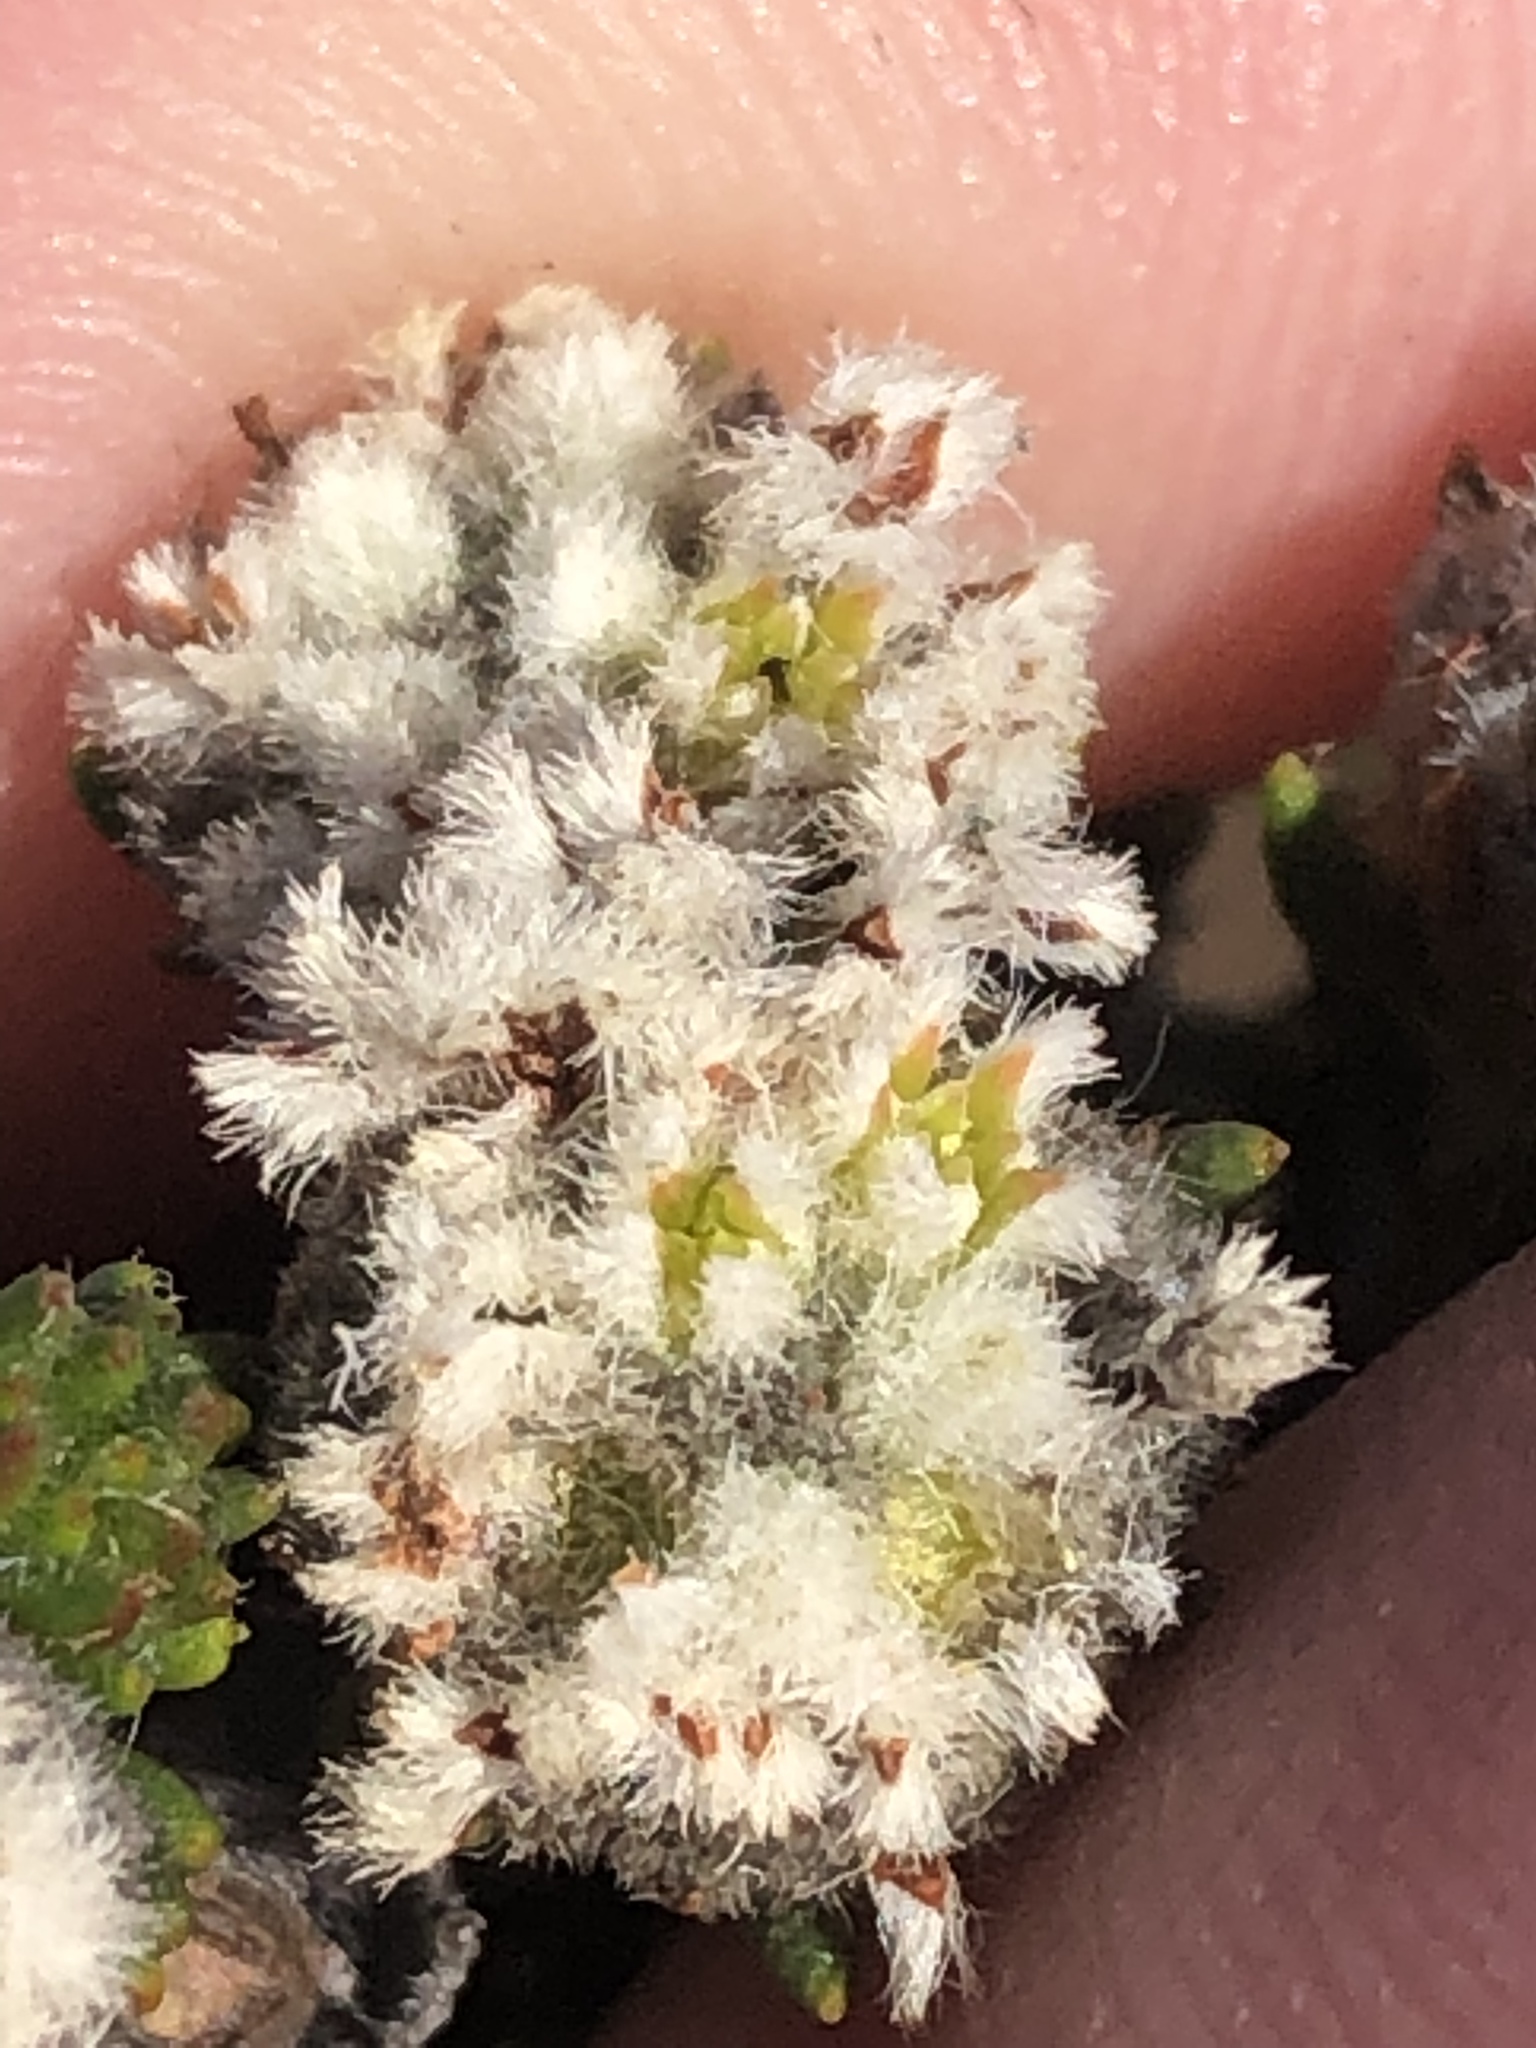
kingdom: Plantae
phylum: Tracheophyta
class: Magnoliopsida
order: Rosales
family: Rhamnaceae
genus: Phylica
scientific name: Phylica propinqua
